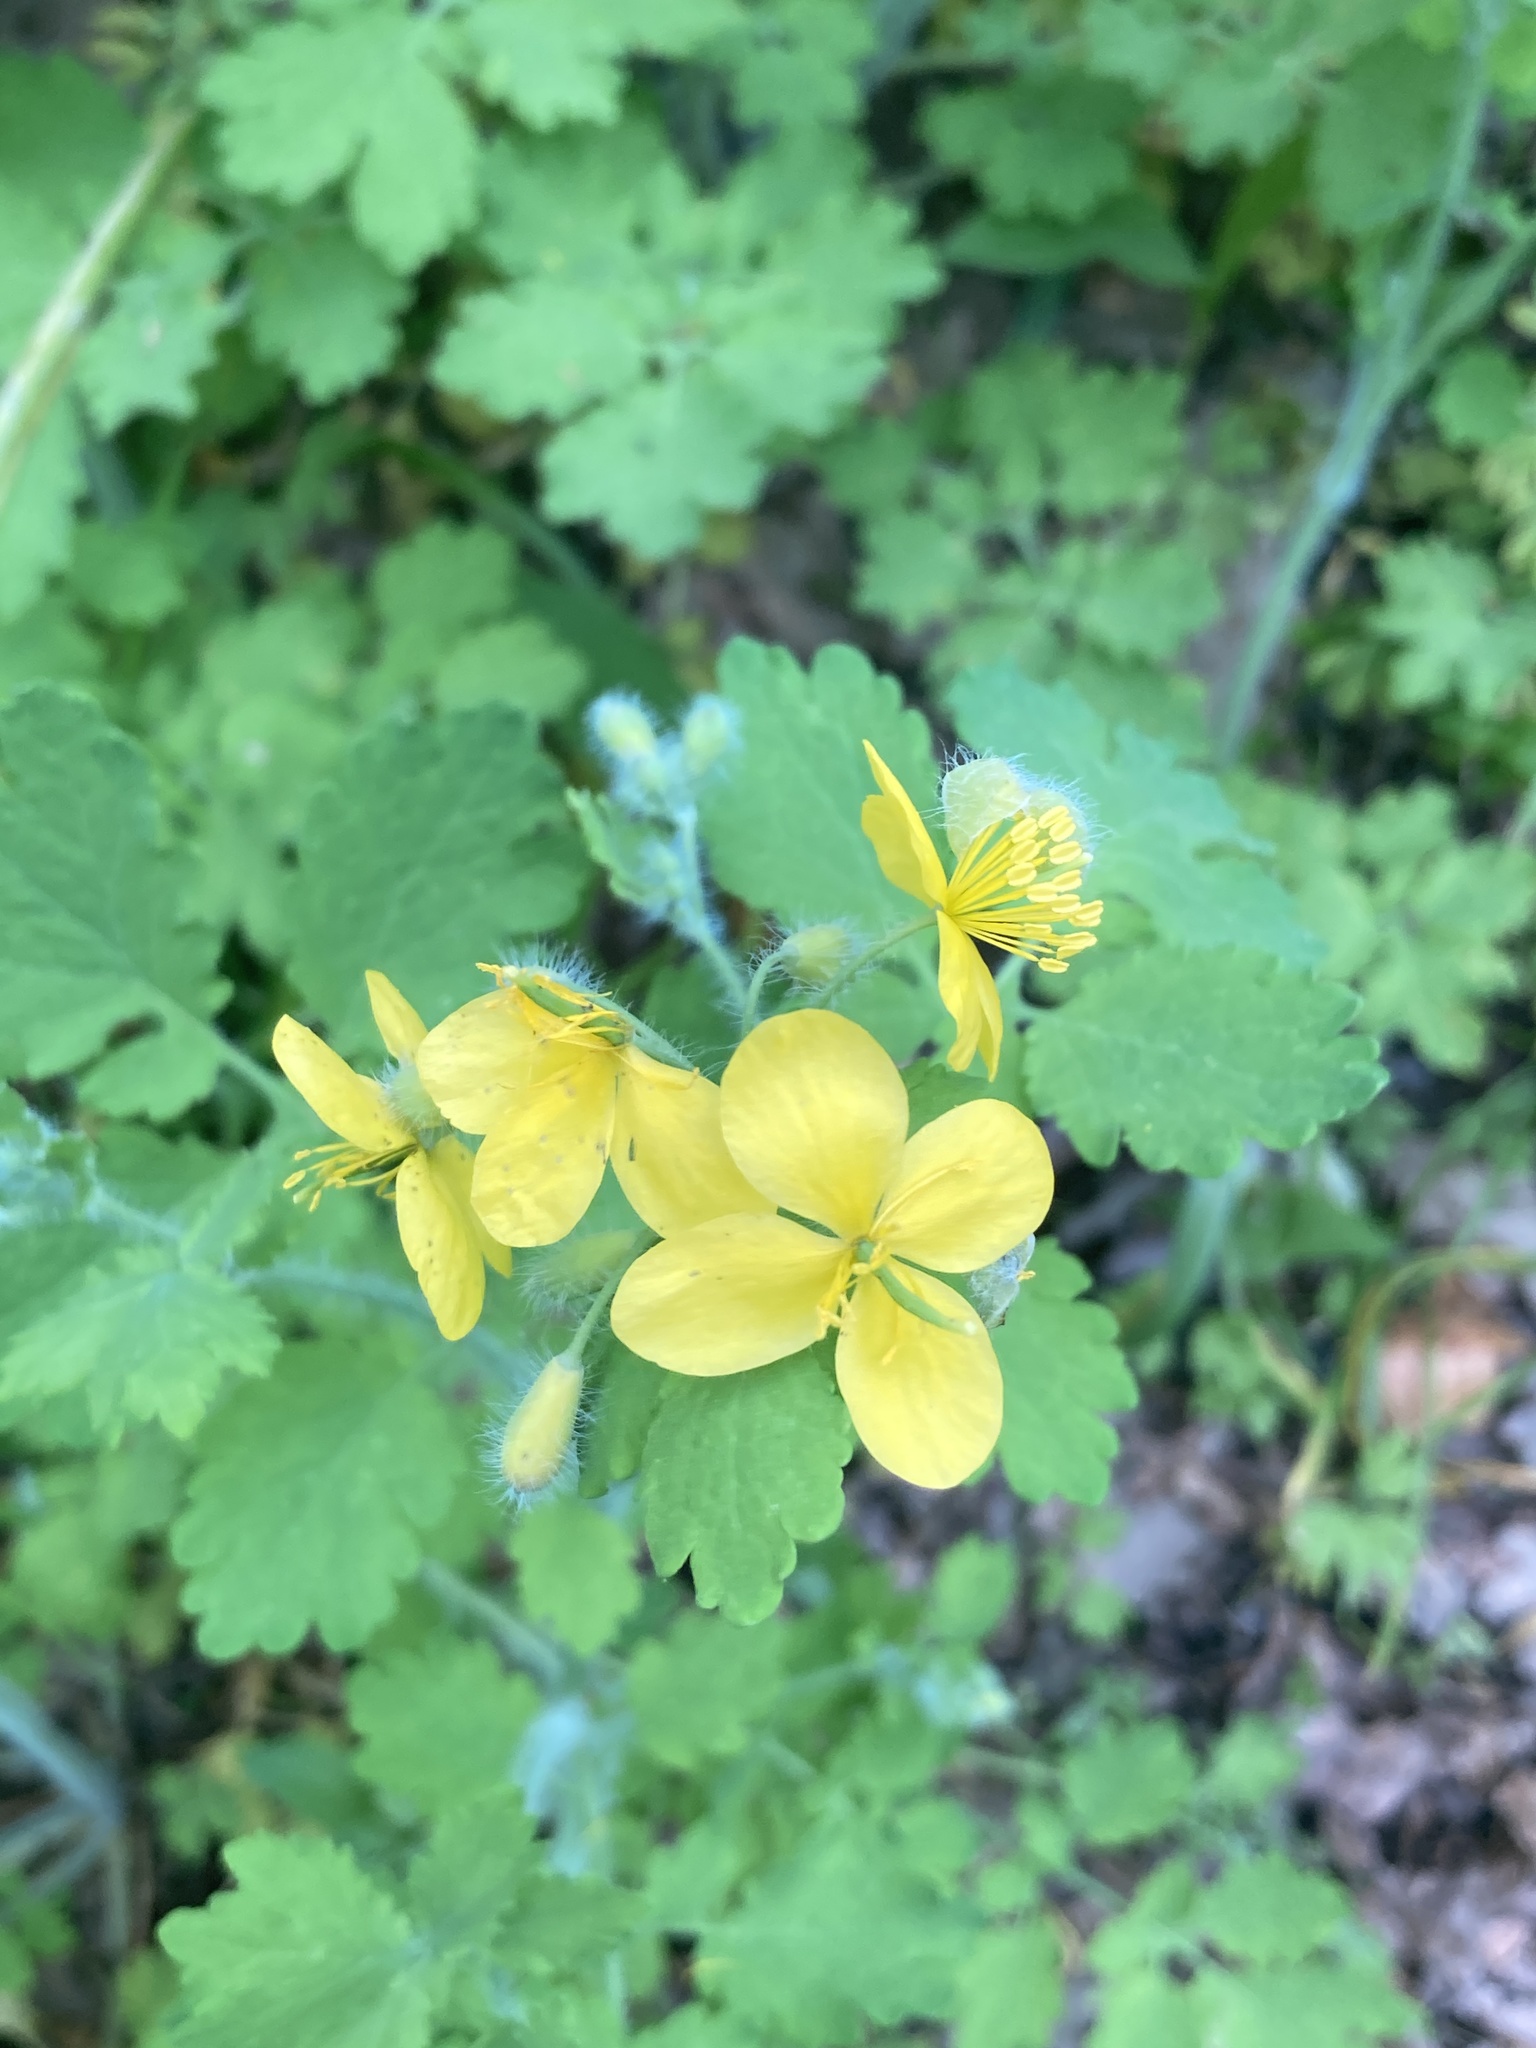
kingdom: Plantae
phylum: Tracheophyta
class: Magnoliopsida
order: Ranunculales
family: Papaveraceae
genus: Chelidonium
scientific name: Chelidonium majus
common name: Greater celandine
